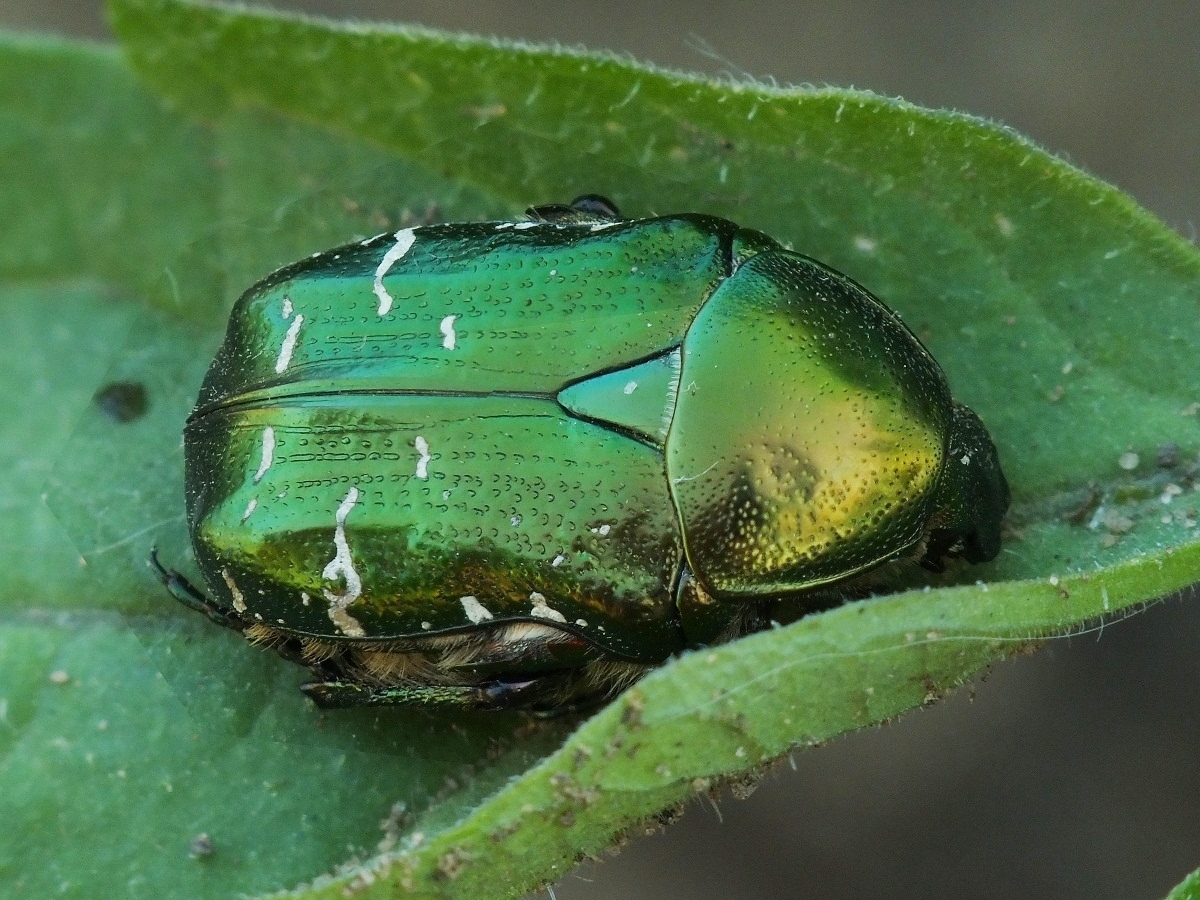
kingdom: Animalia
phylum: Arthropoda
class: Insecta
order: Coleoptera
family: Scarabaeidae
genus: Cetonia
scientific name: Cetonia aurata
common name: Rose chafer
